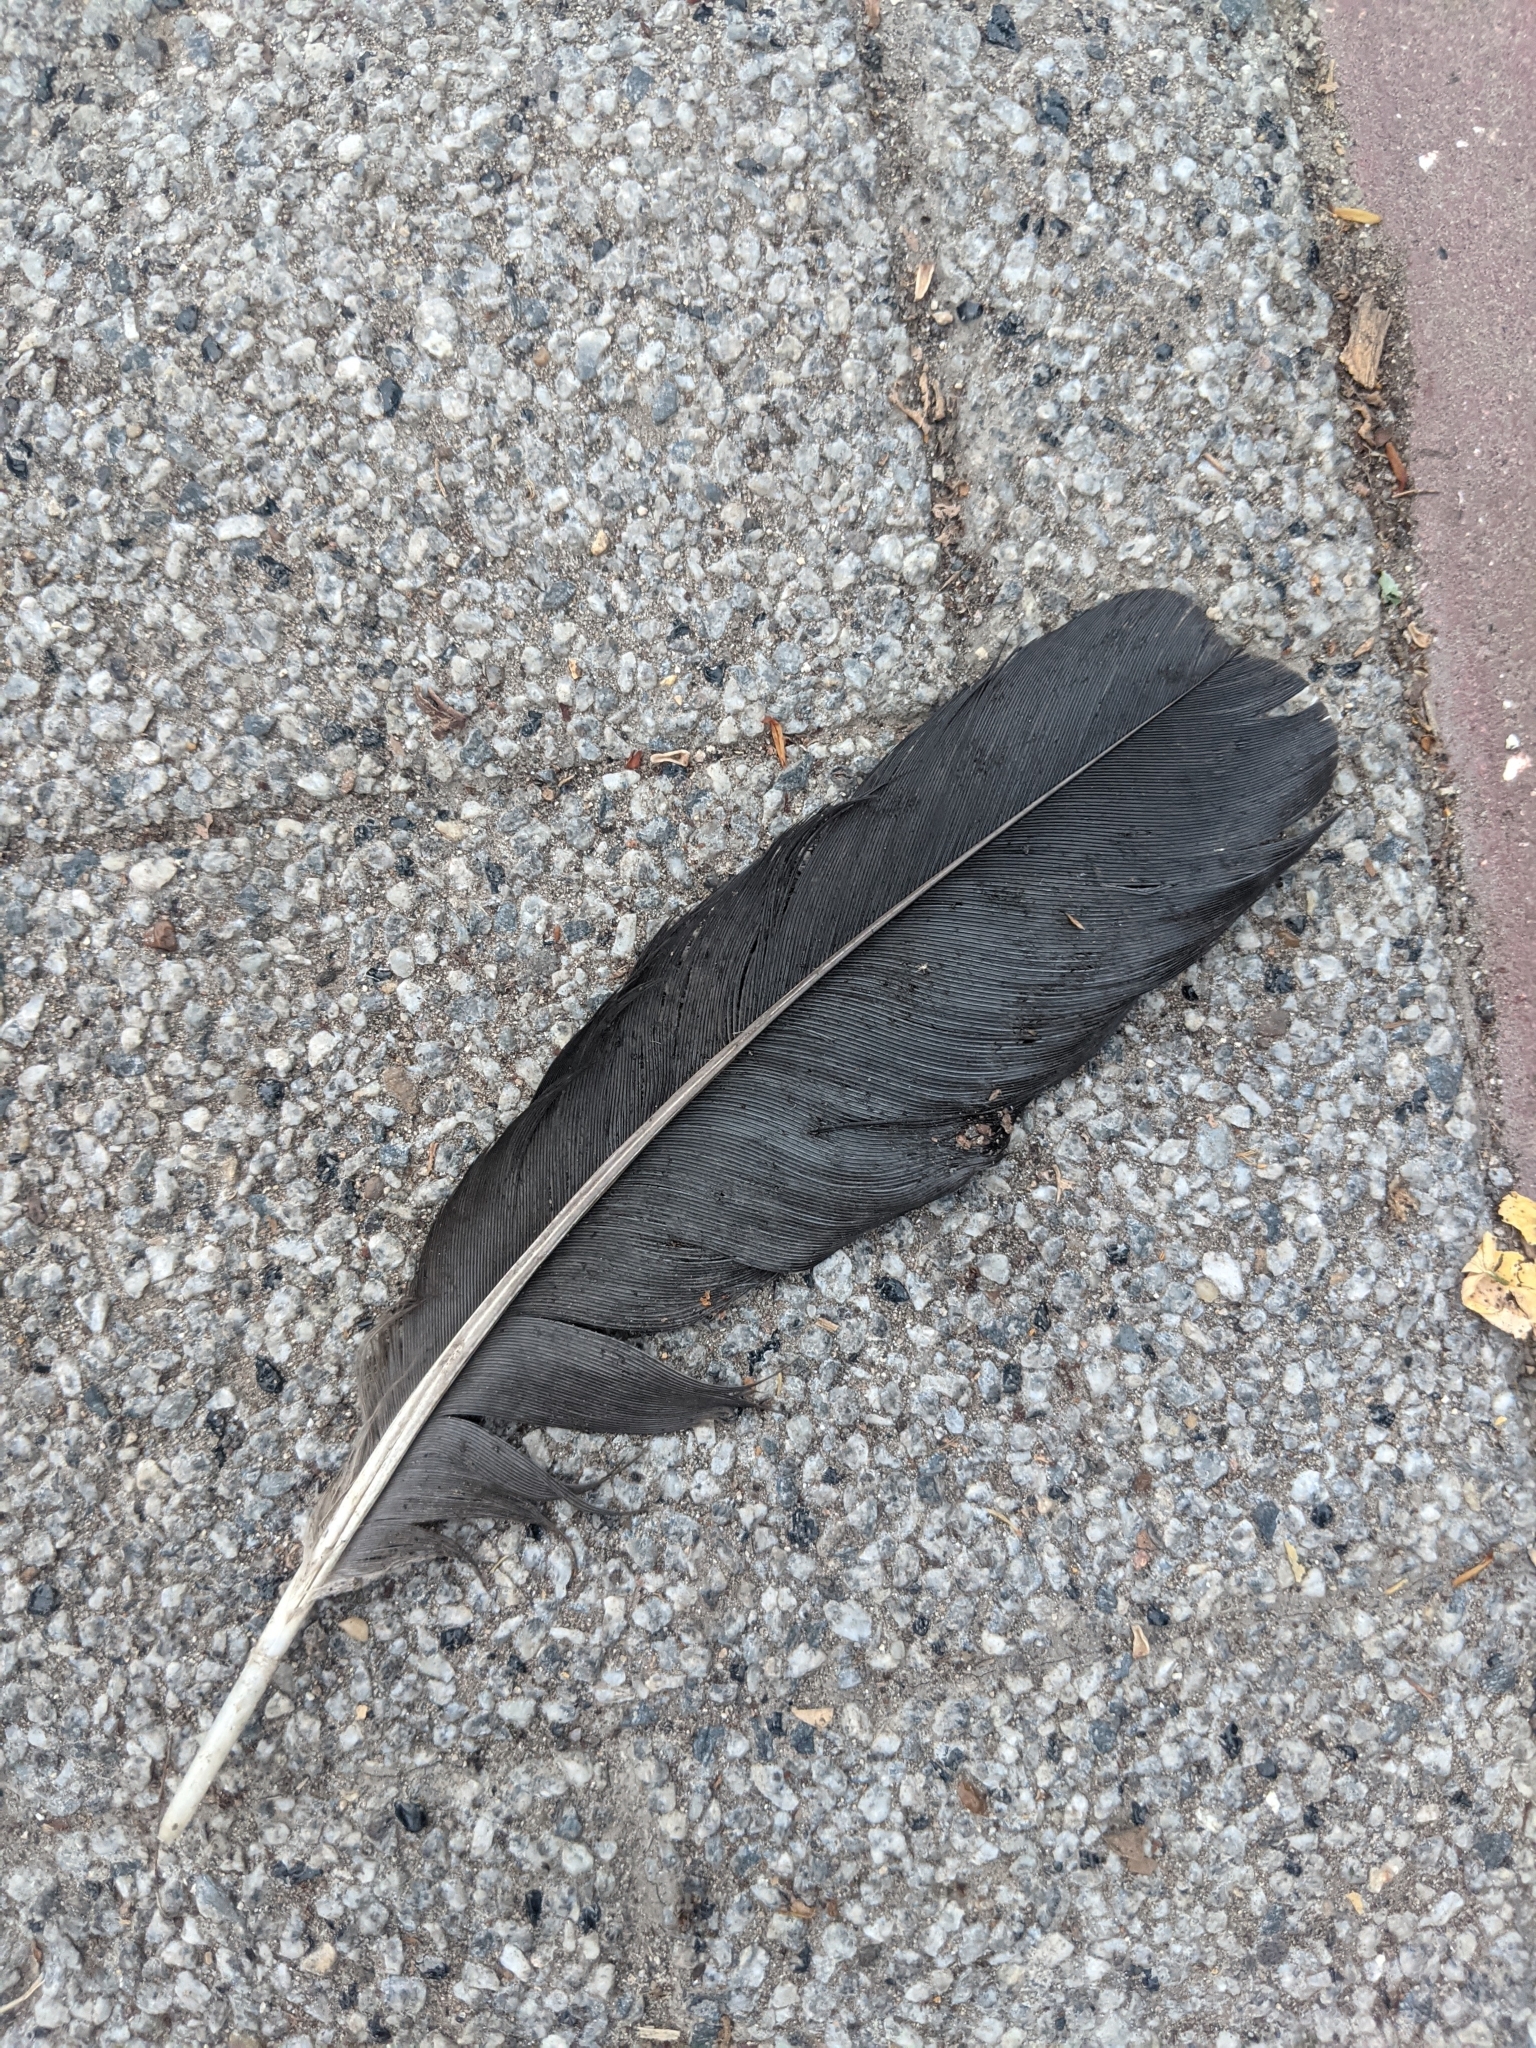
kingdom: Animalia
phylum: Chordata
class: Aves
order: Passeriformes
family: Corvidae
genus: Corvus
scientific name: Corvus frugilegus
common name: Rook
